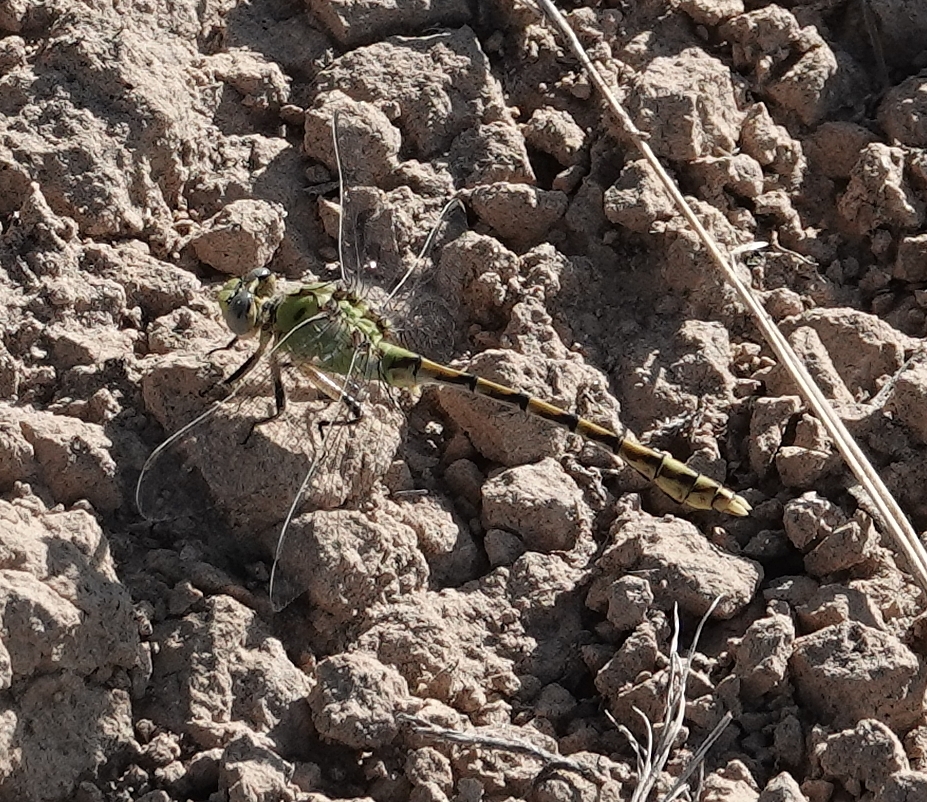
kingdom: Animalia
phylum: Arthropoda
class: Insecta
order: Odonata
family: Gomphidae
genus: Ophiogomphus
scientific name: Ophiogomphus severus
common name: Pale snaketail
